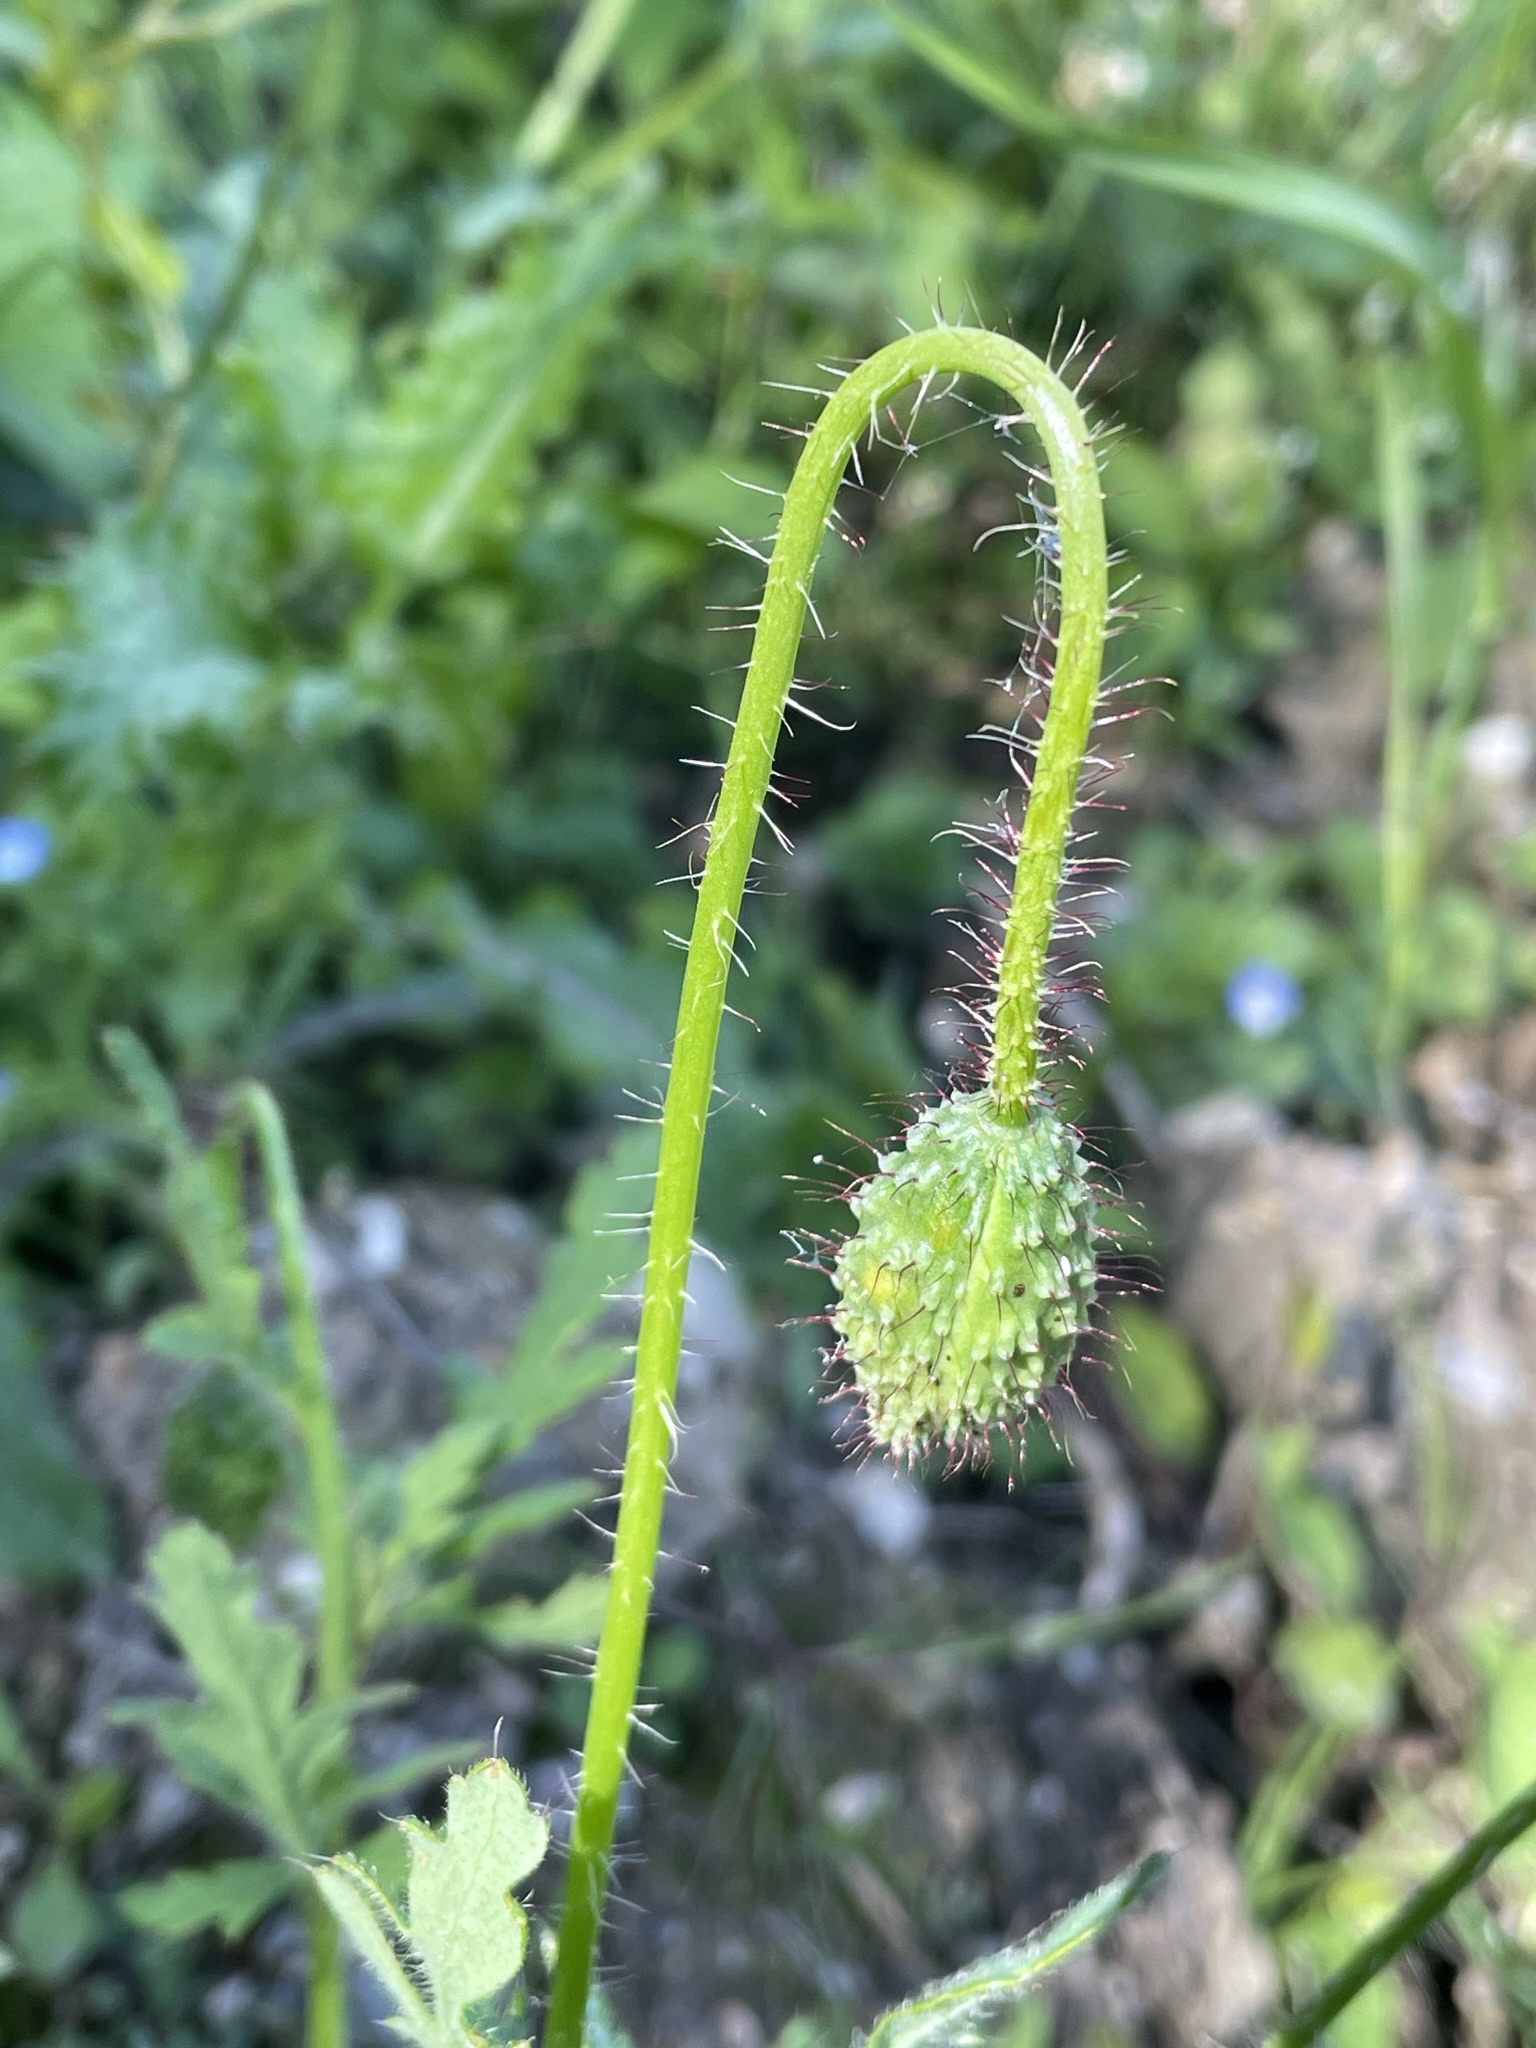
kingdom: Plantae
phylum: Tracheophyta
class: Magnoliopsida
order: Ranunculales
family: Papaveraceae
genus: Papaver
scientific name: Papaver rhoeas
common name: Corn poppy
